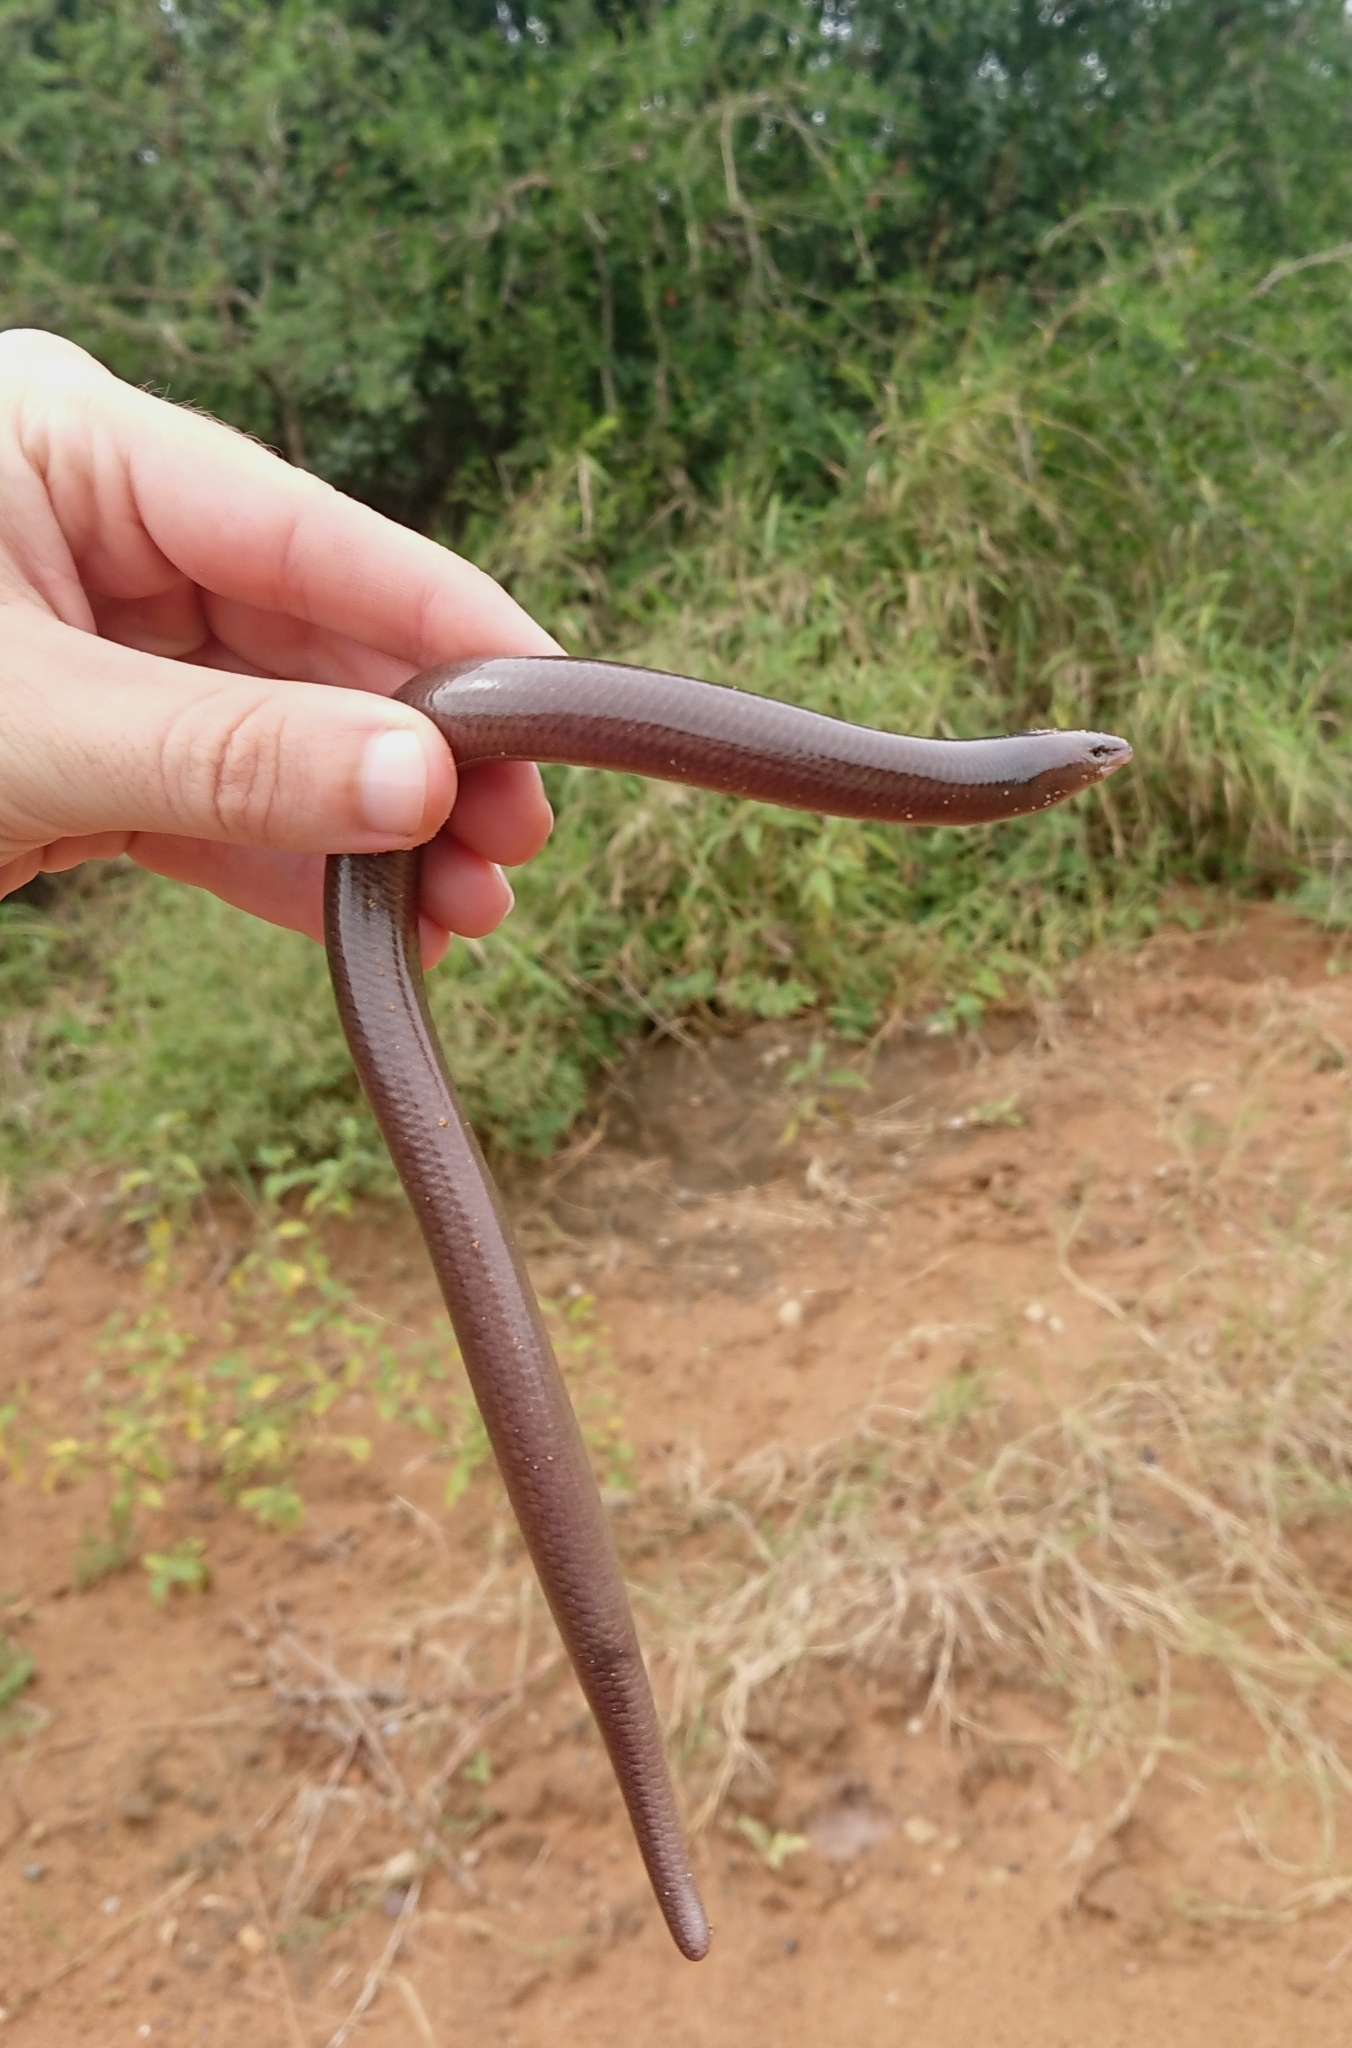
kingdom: Animalia
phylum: Chordata
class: Squamata
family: Scincidae
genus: Acontias
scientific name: Acontias plumbeus
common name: Giant lance skink
